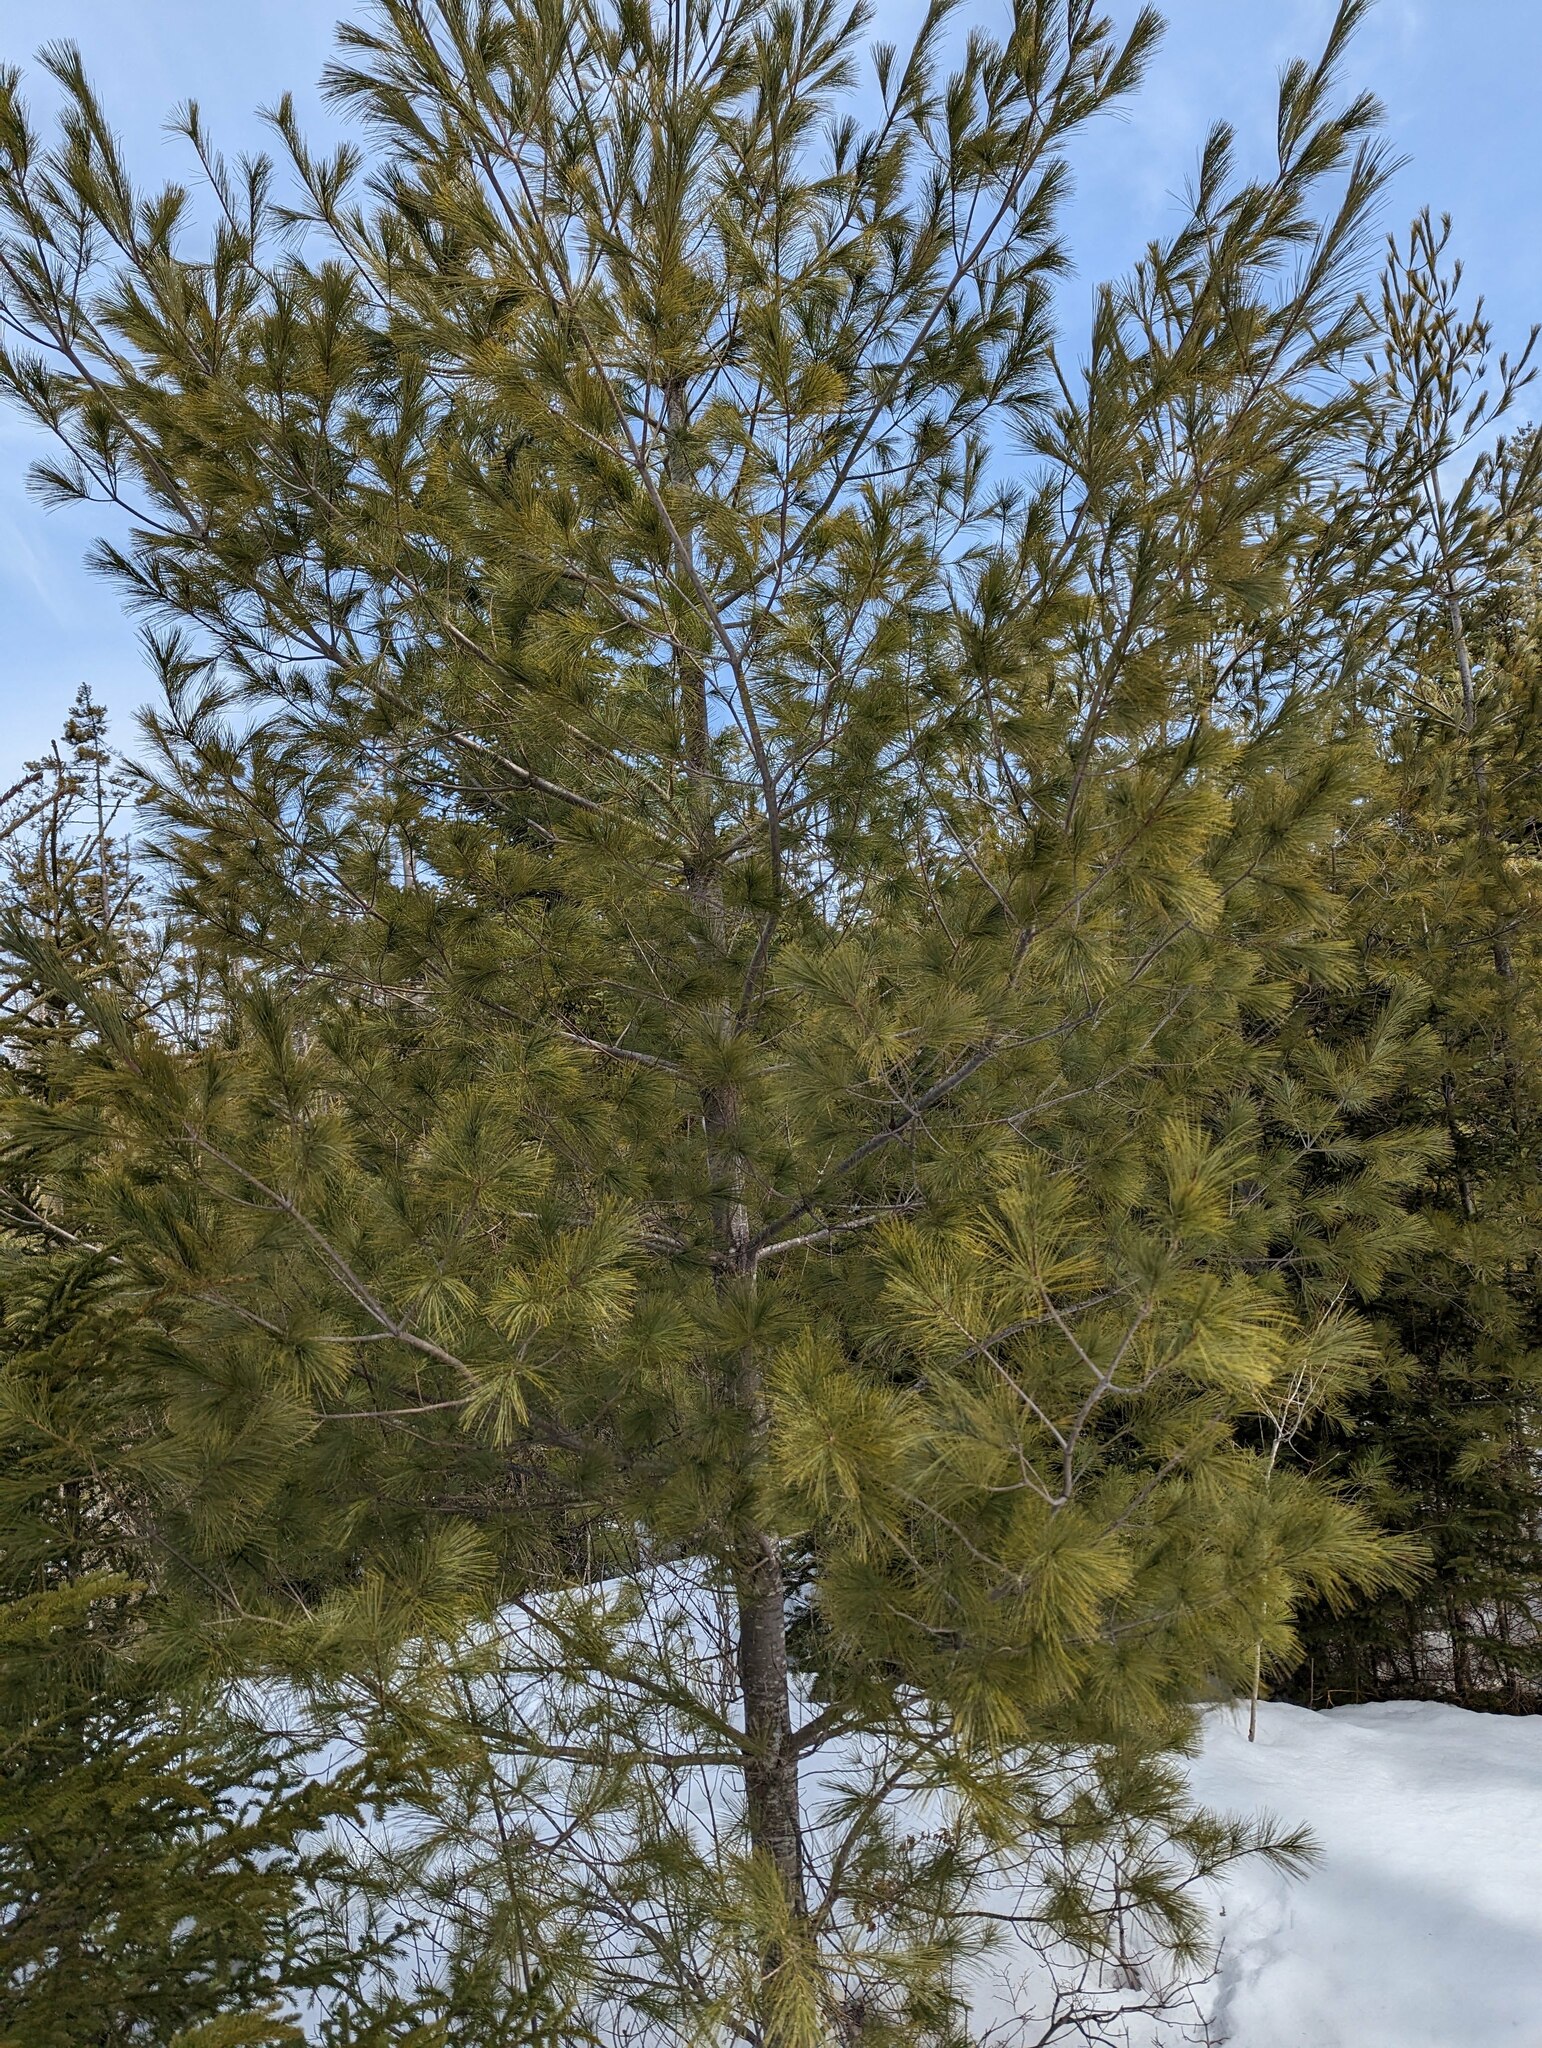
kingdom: Plantae
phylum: Tracheophyta
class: Pinopsida
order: Pinales
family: Pinaceae
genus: Pinus
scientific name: Pinus strobus
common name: Weymouth pine
